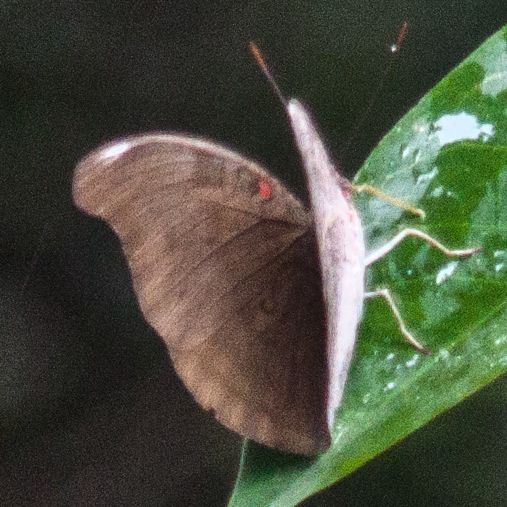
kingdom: Animalia
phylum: Arthropoda
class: Insecta
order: Lepidoptera
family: Nymphalidae
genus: Euthalia
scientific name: Euthalia Dophla evelina
